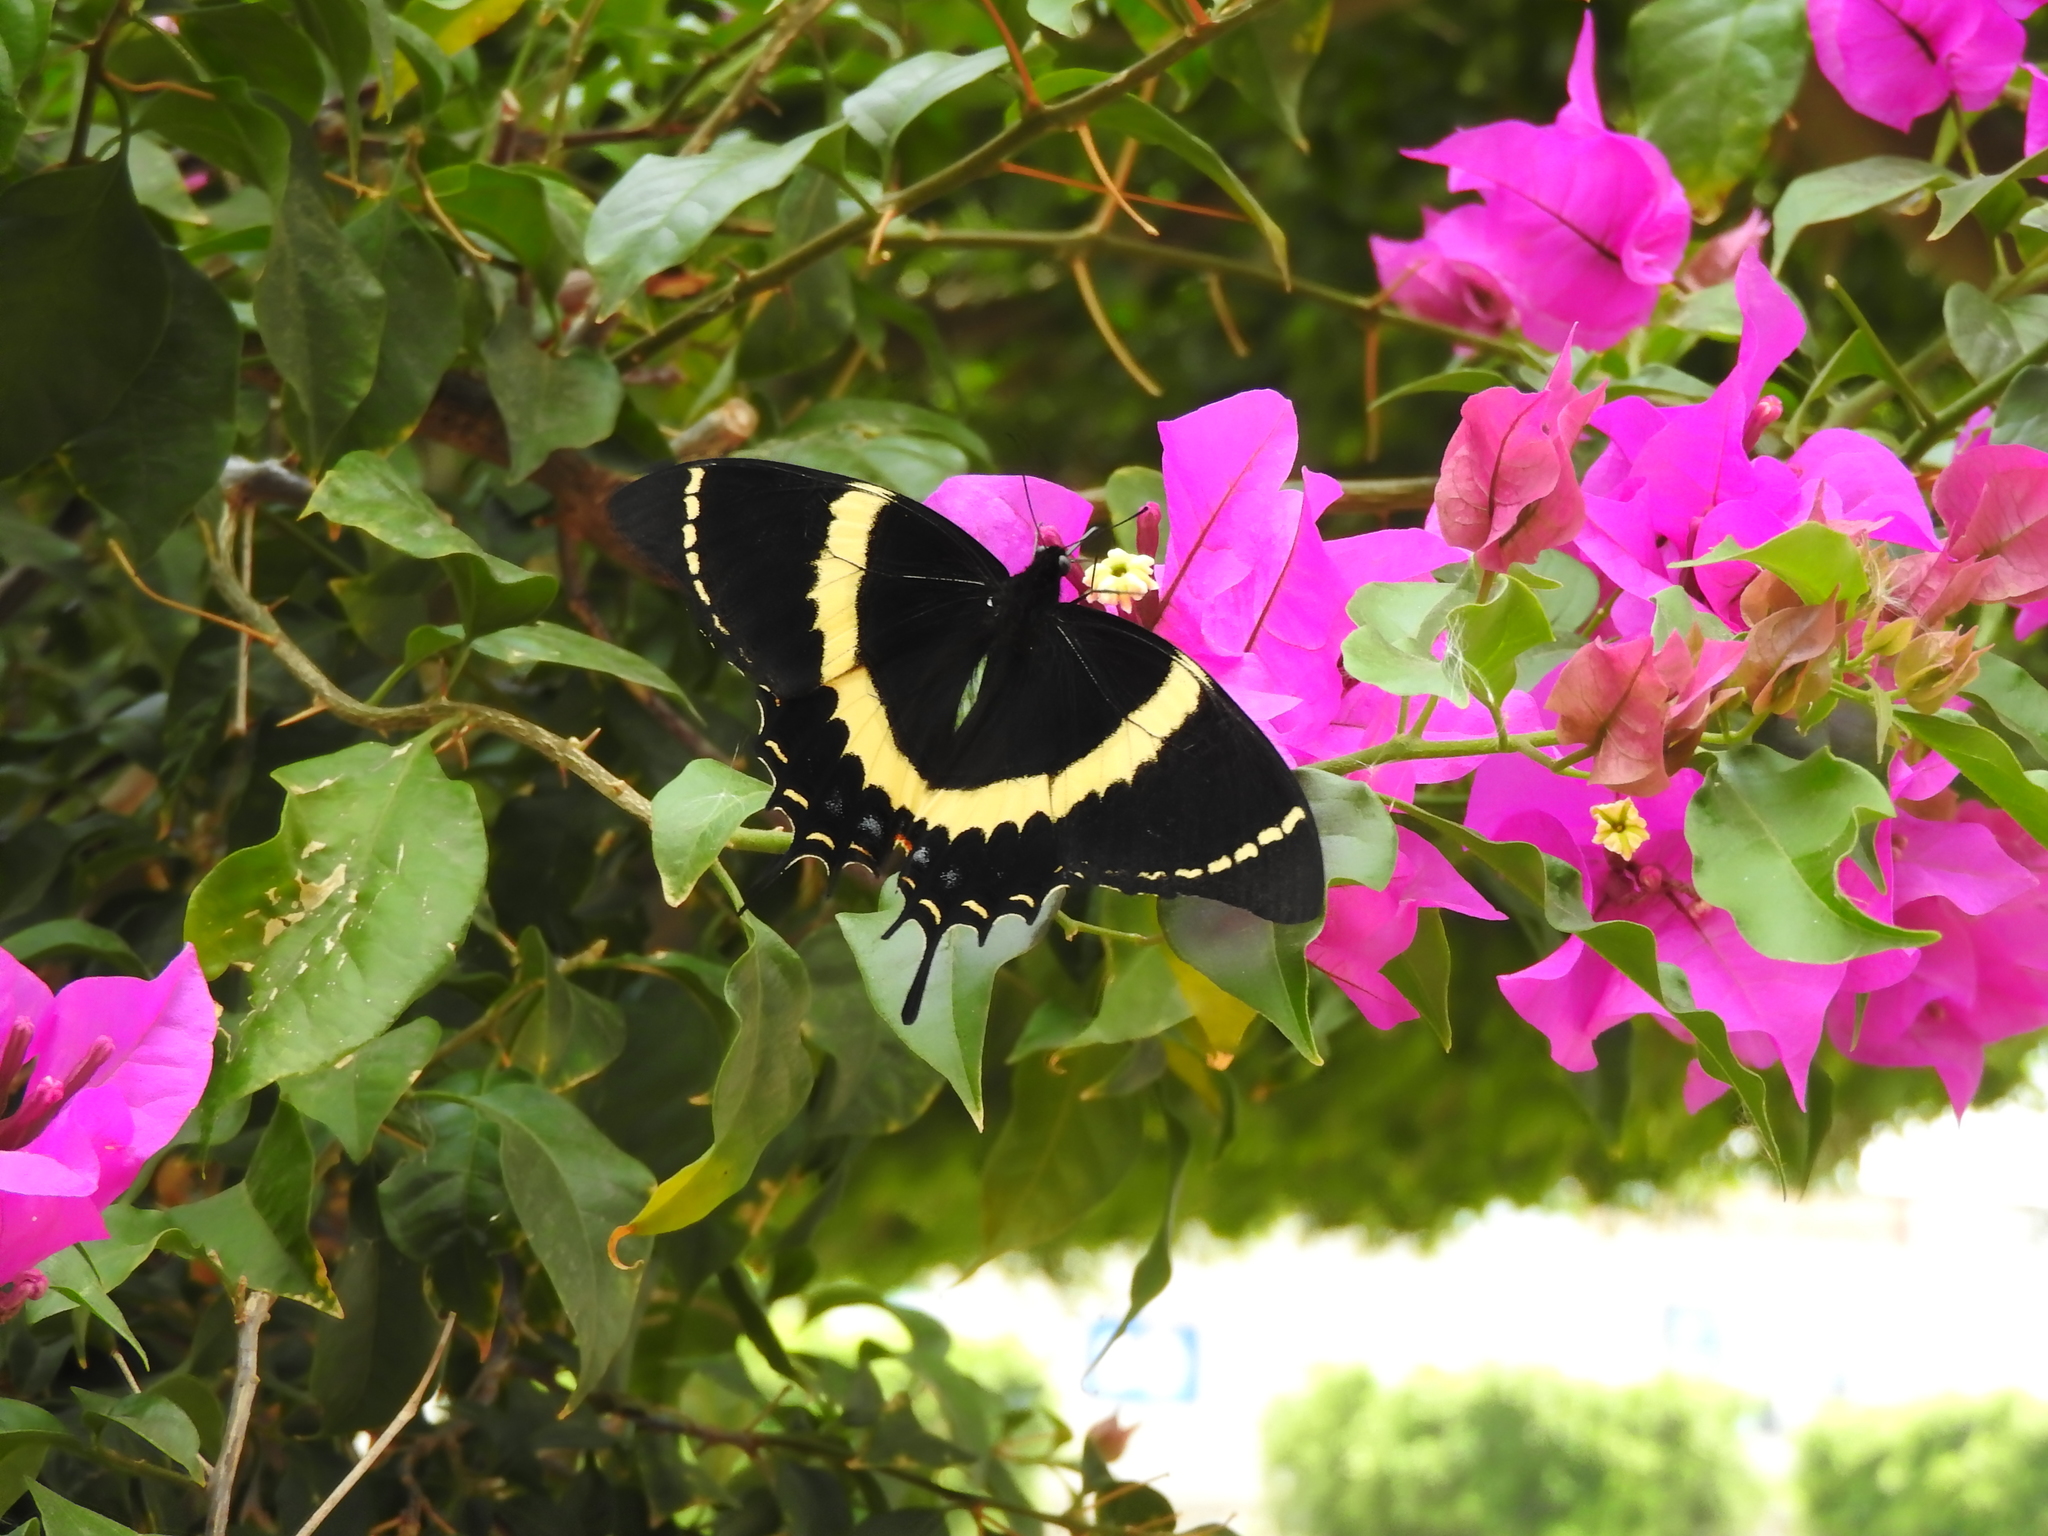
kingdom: Animalia
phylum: Arthropoda
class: Insecta
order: Lepidoptera
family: Papilionidae
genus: Papilio
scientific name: Papilio garamas
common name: Magnificent swallowtail
